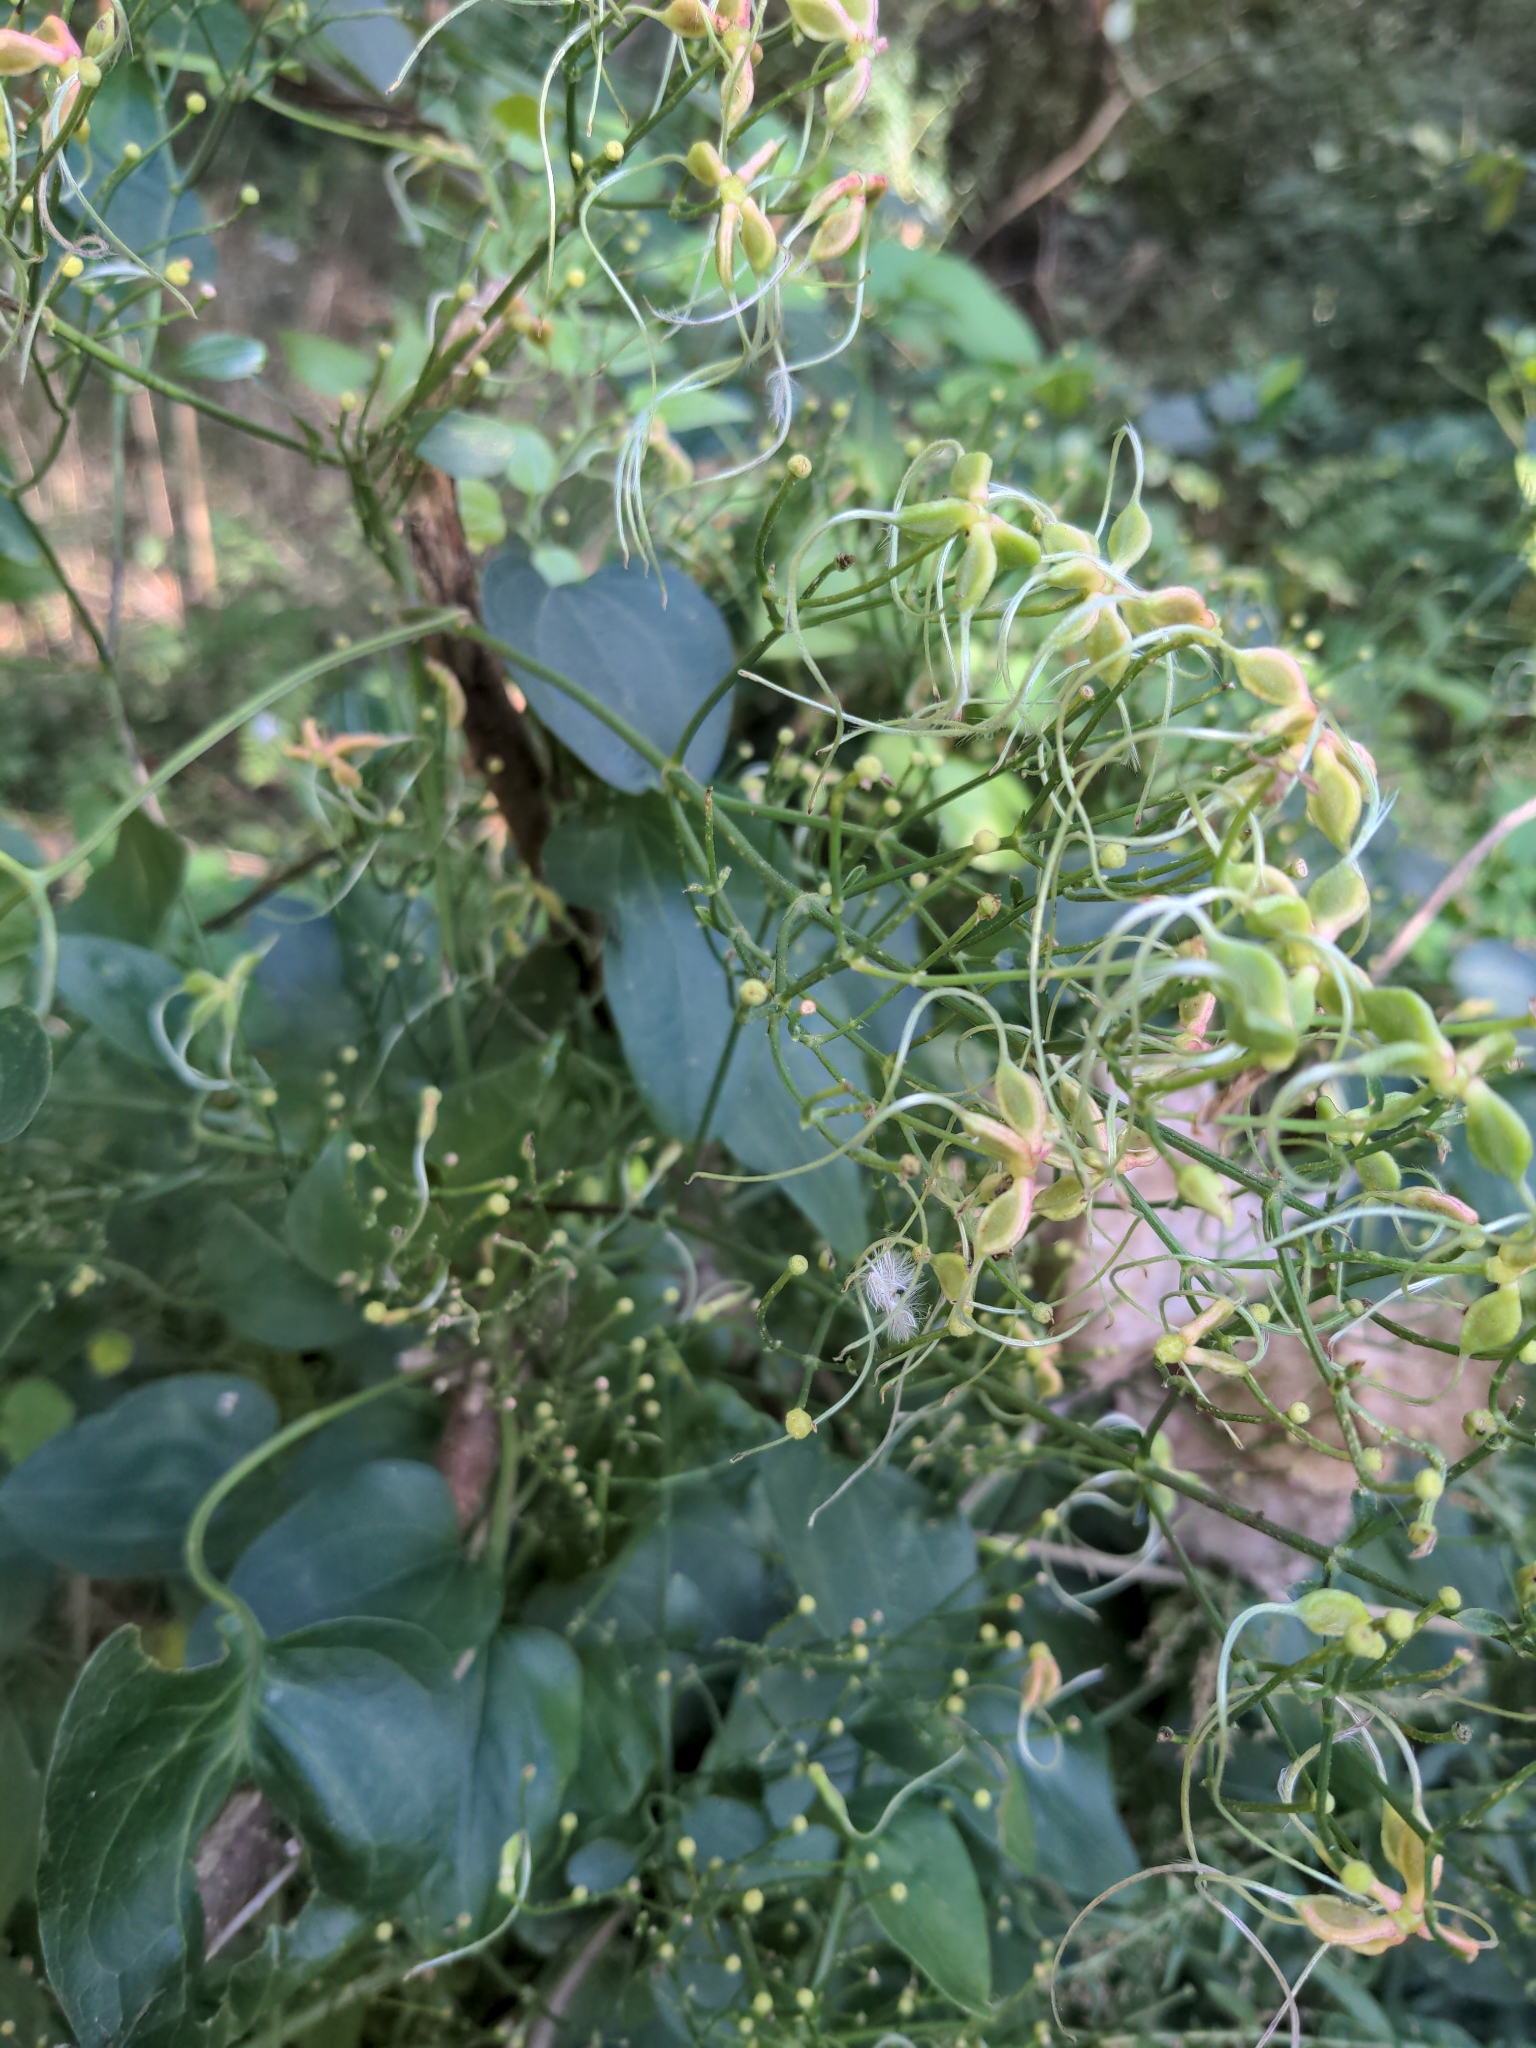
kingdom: Plantae
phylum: Tracheophyta
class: Magnoliopsida
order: Ranunculales
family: Ranunculaceae
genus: Clematis
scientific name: Clematis terniflora
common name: Sweet autumn clematis
